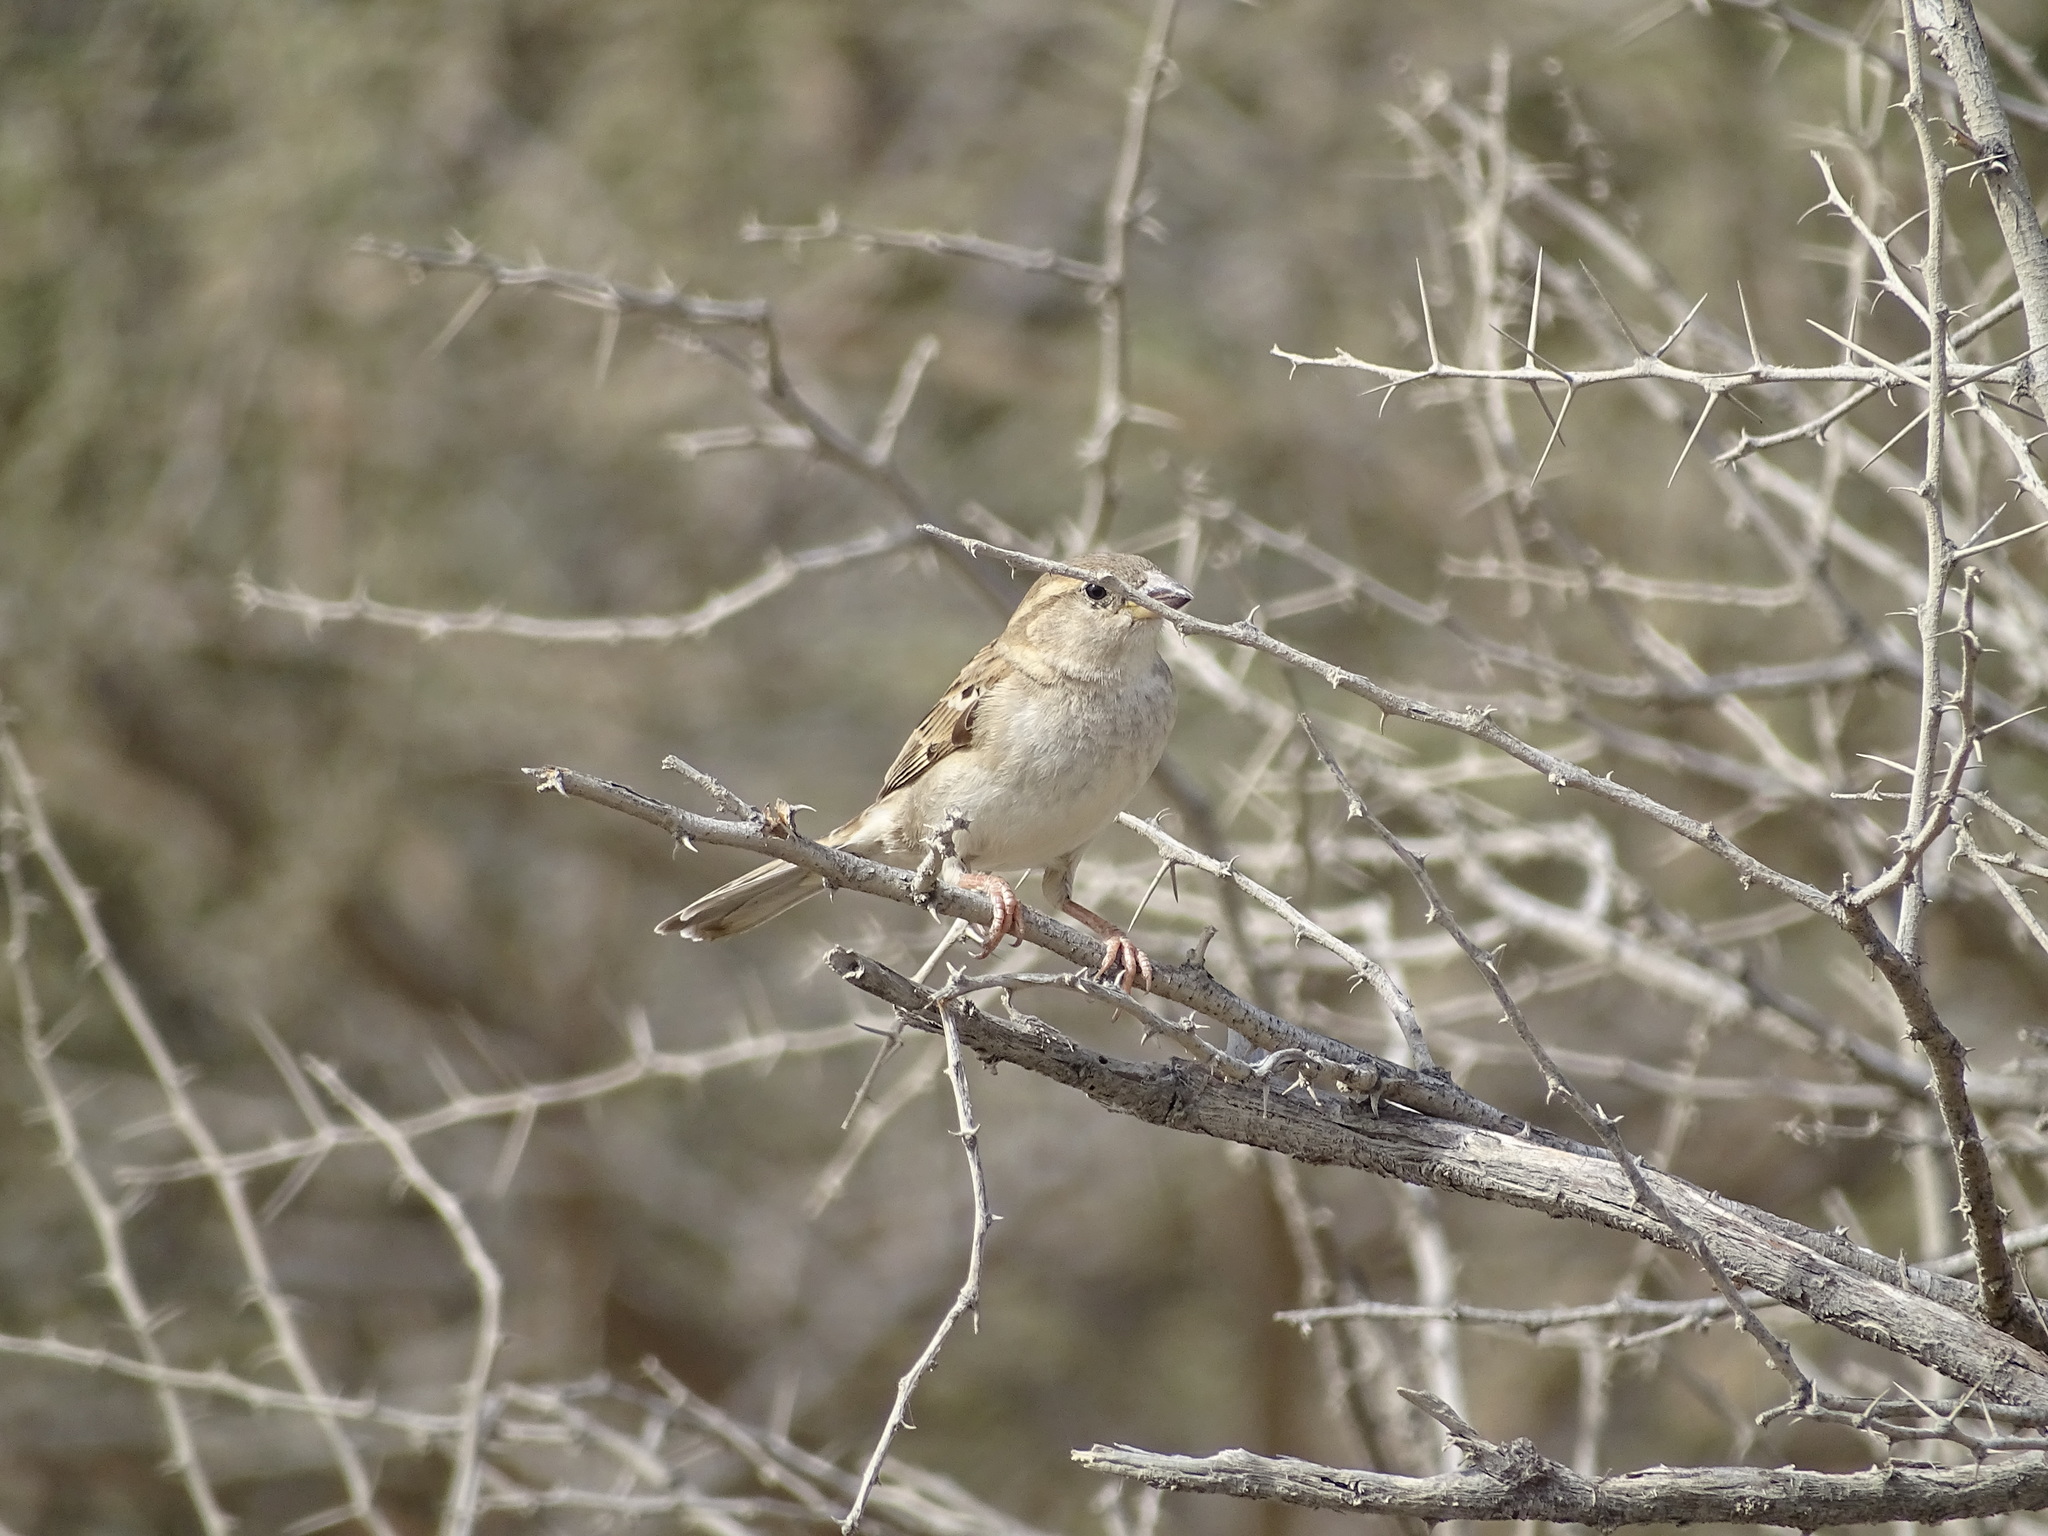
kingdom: Animalia
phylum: Chordata
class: Aves
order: Passeriformes
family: Passeridae
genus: Passer
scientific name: Passer domesticus
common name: House sparrow
